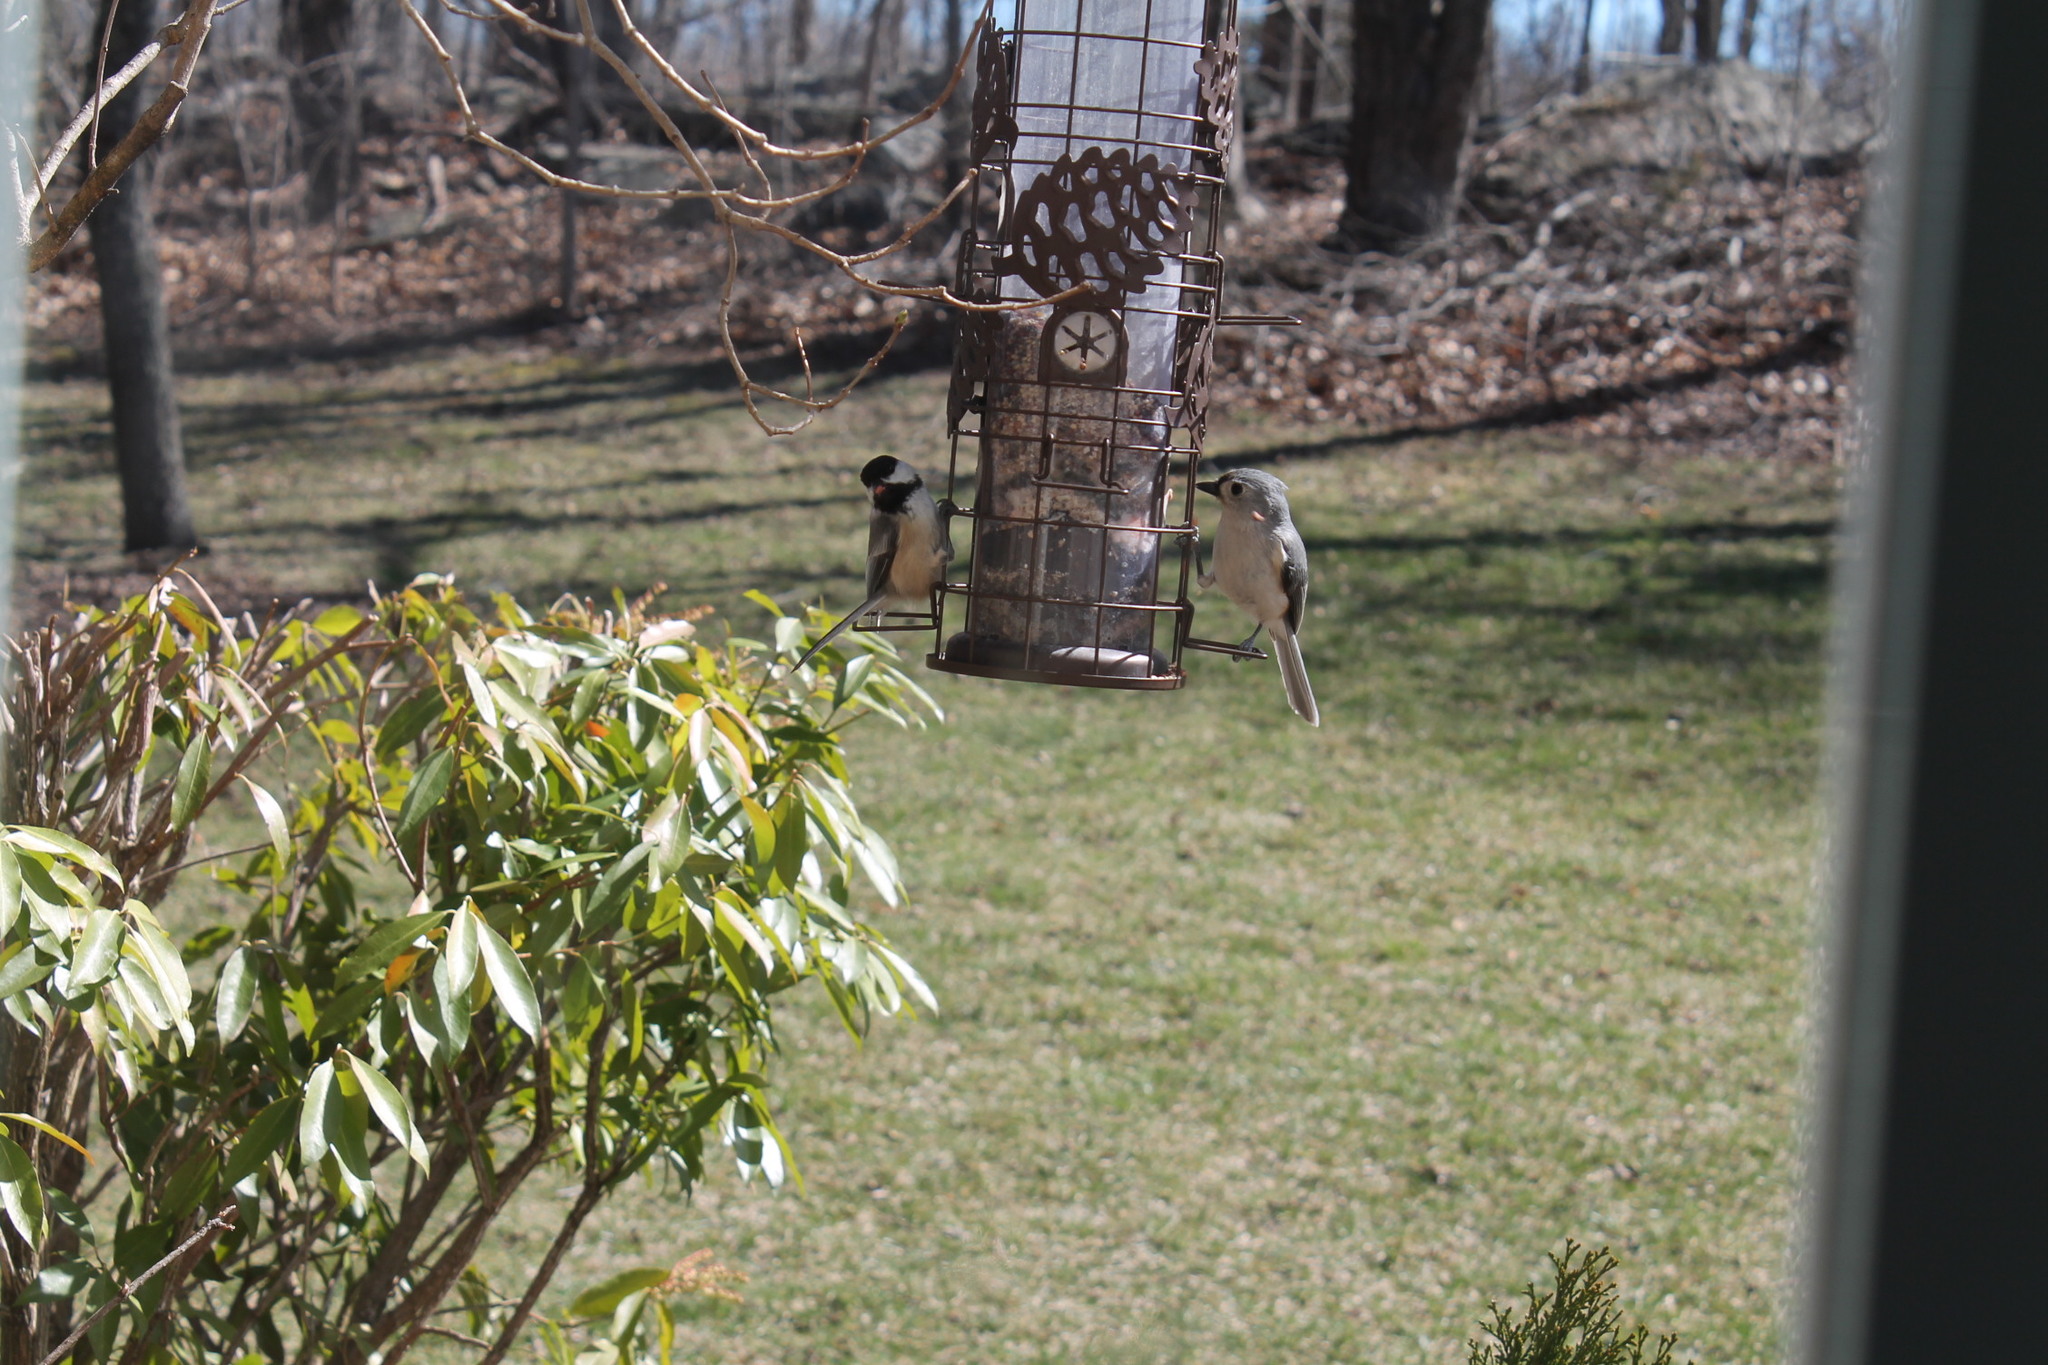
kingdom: Animalia
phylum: Chordata
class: Aves
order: Passeriformes
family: Paridae
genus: Poecile
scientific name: Poecile atricapillus
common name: Black-capped chickadee
